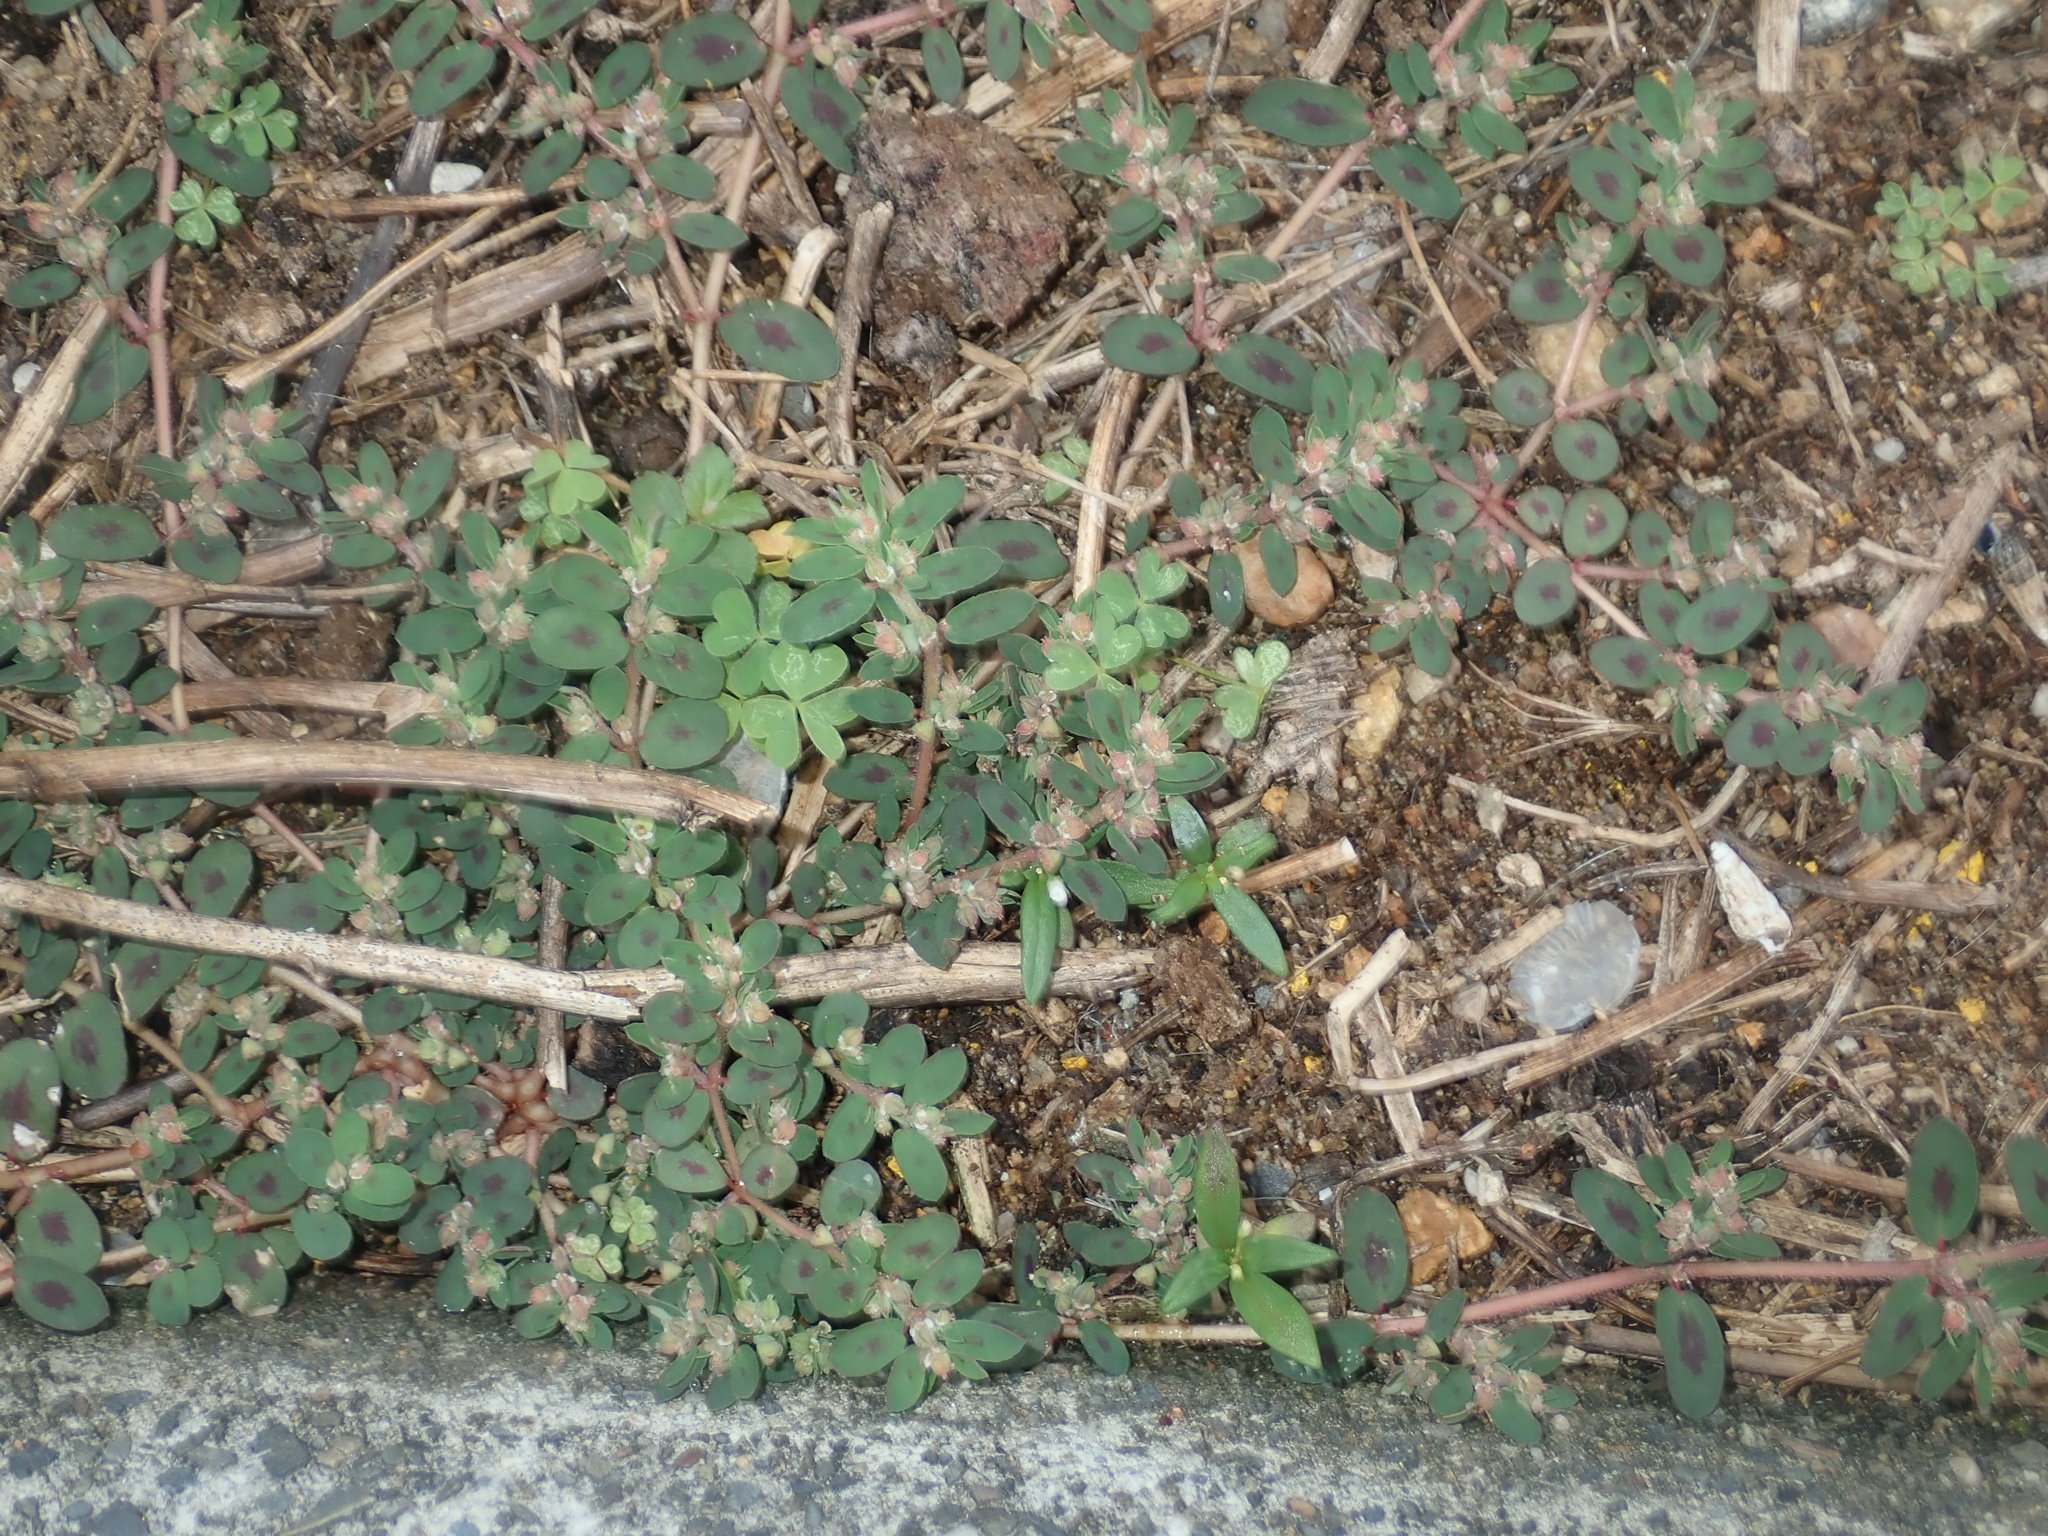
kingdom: Plantae
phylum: Tracheophyta
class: Magnoliopsida
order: Malpighiales
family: Euphorbiaceae
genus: Euphorbia
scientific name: Euphorbia maculata
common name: Spotted spurge
